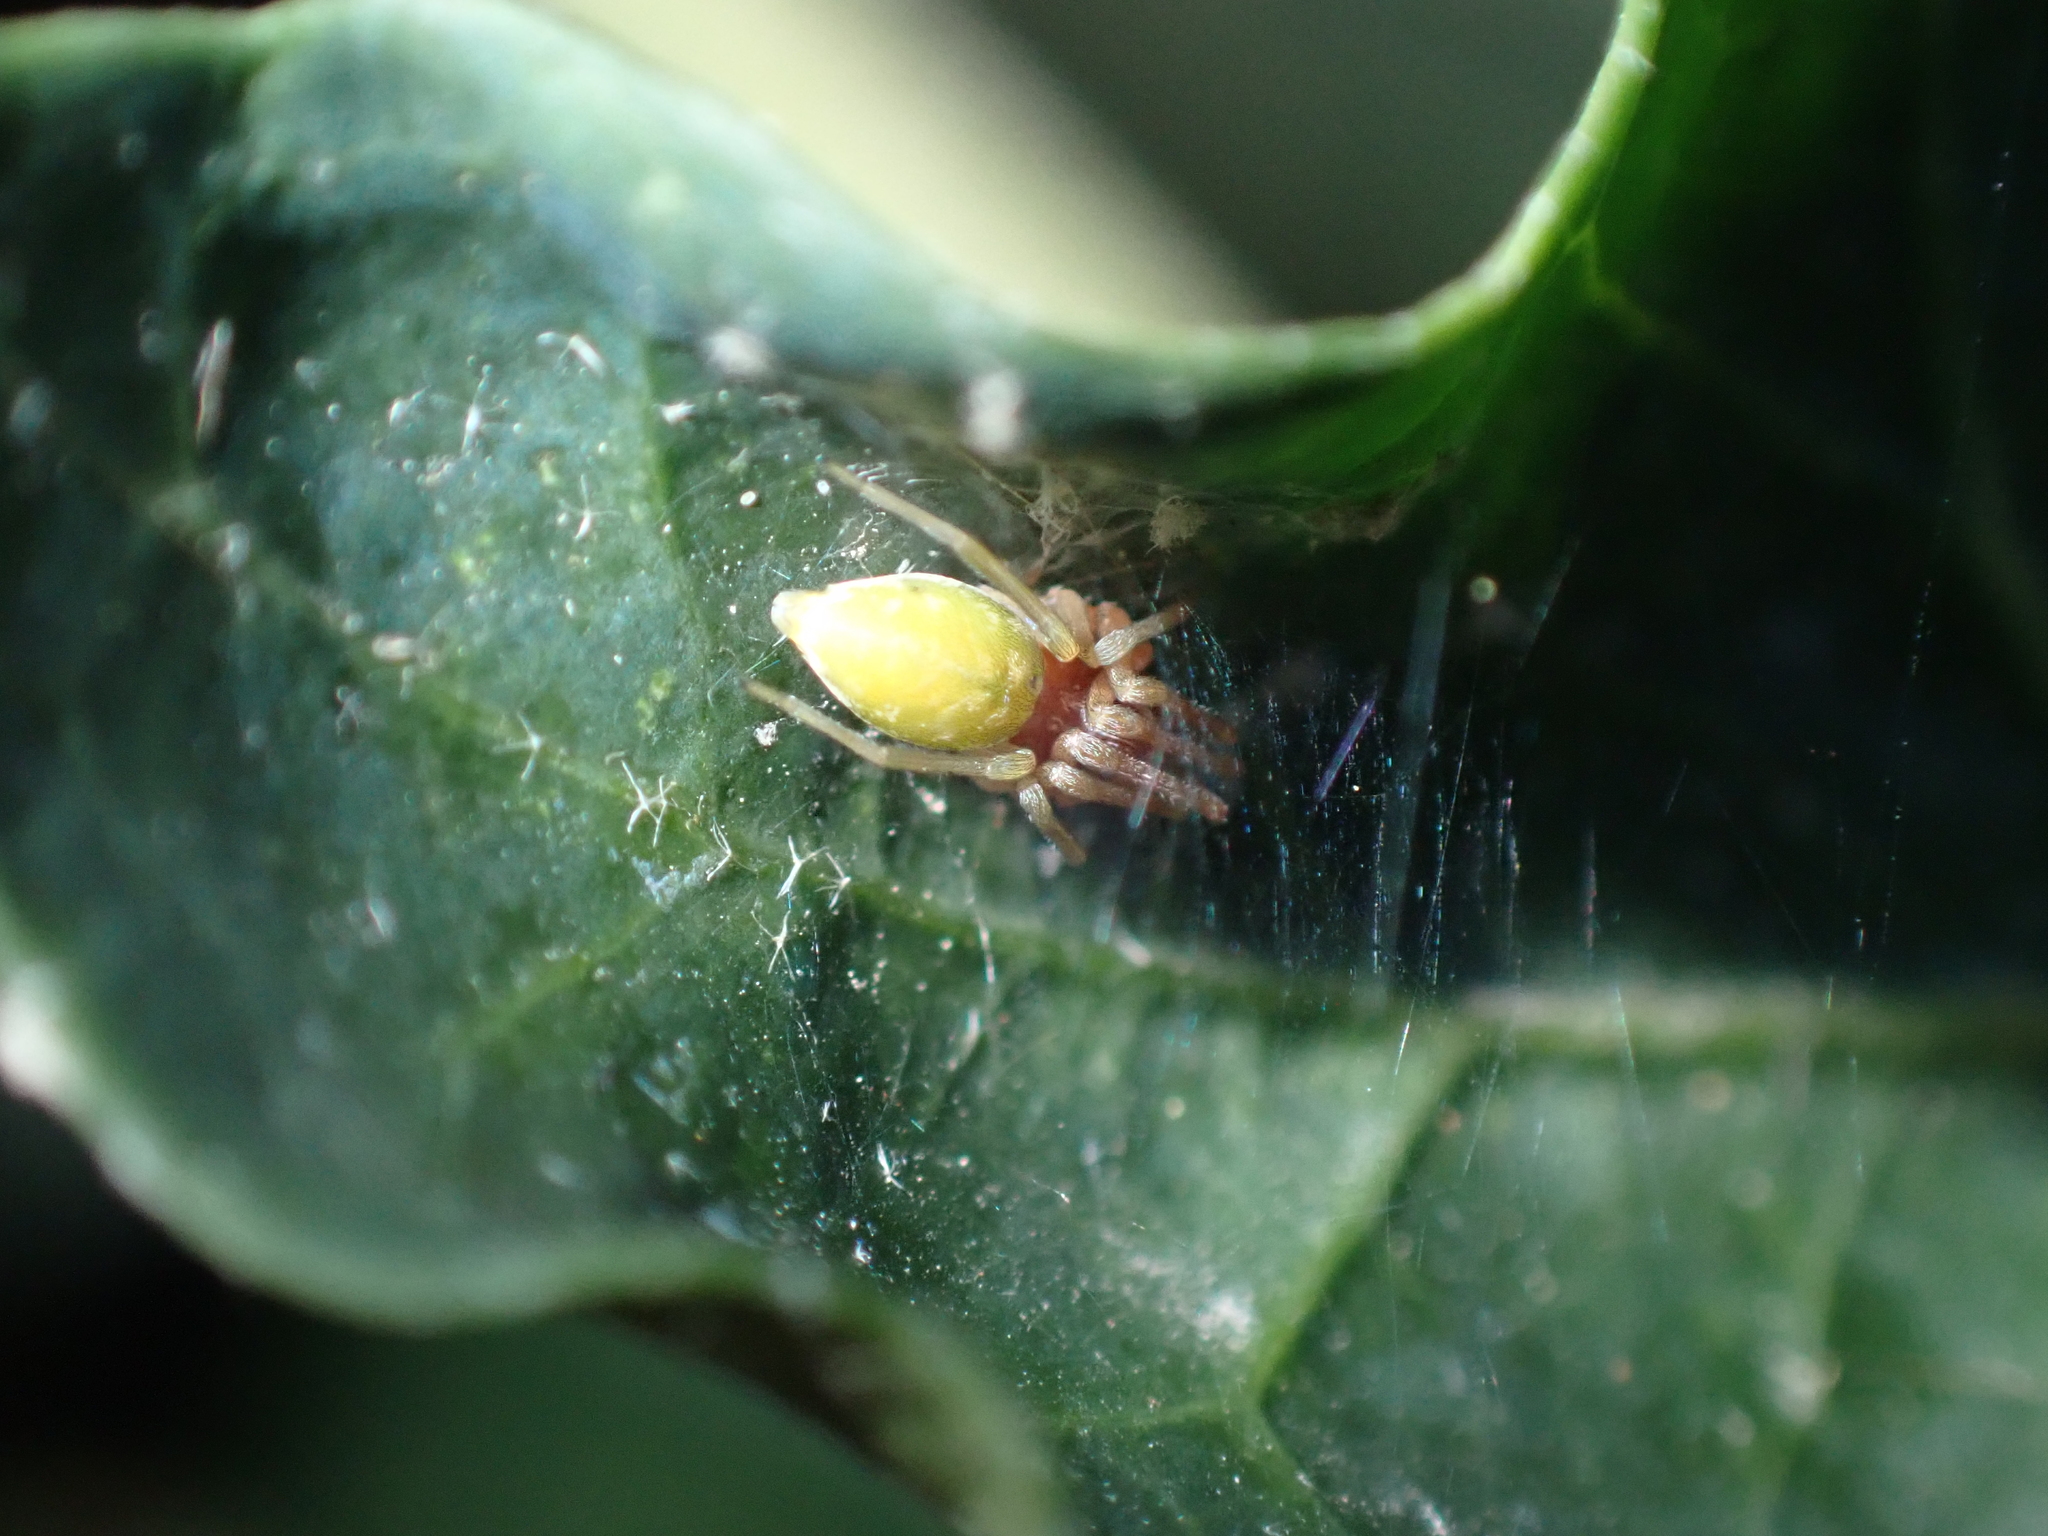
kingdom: Animalia
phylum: Arthropoda
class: Arachnida
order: Araneae
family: Dictynidae
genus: Nigma
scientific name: Nigma walckenaeri
